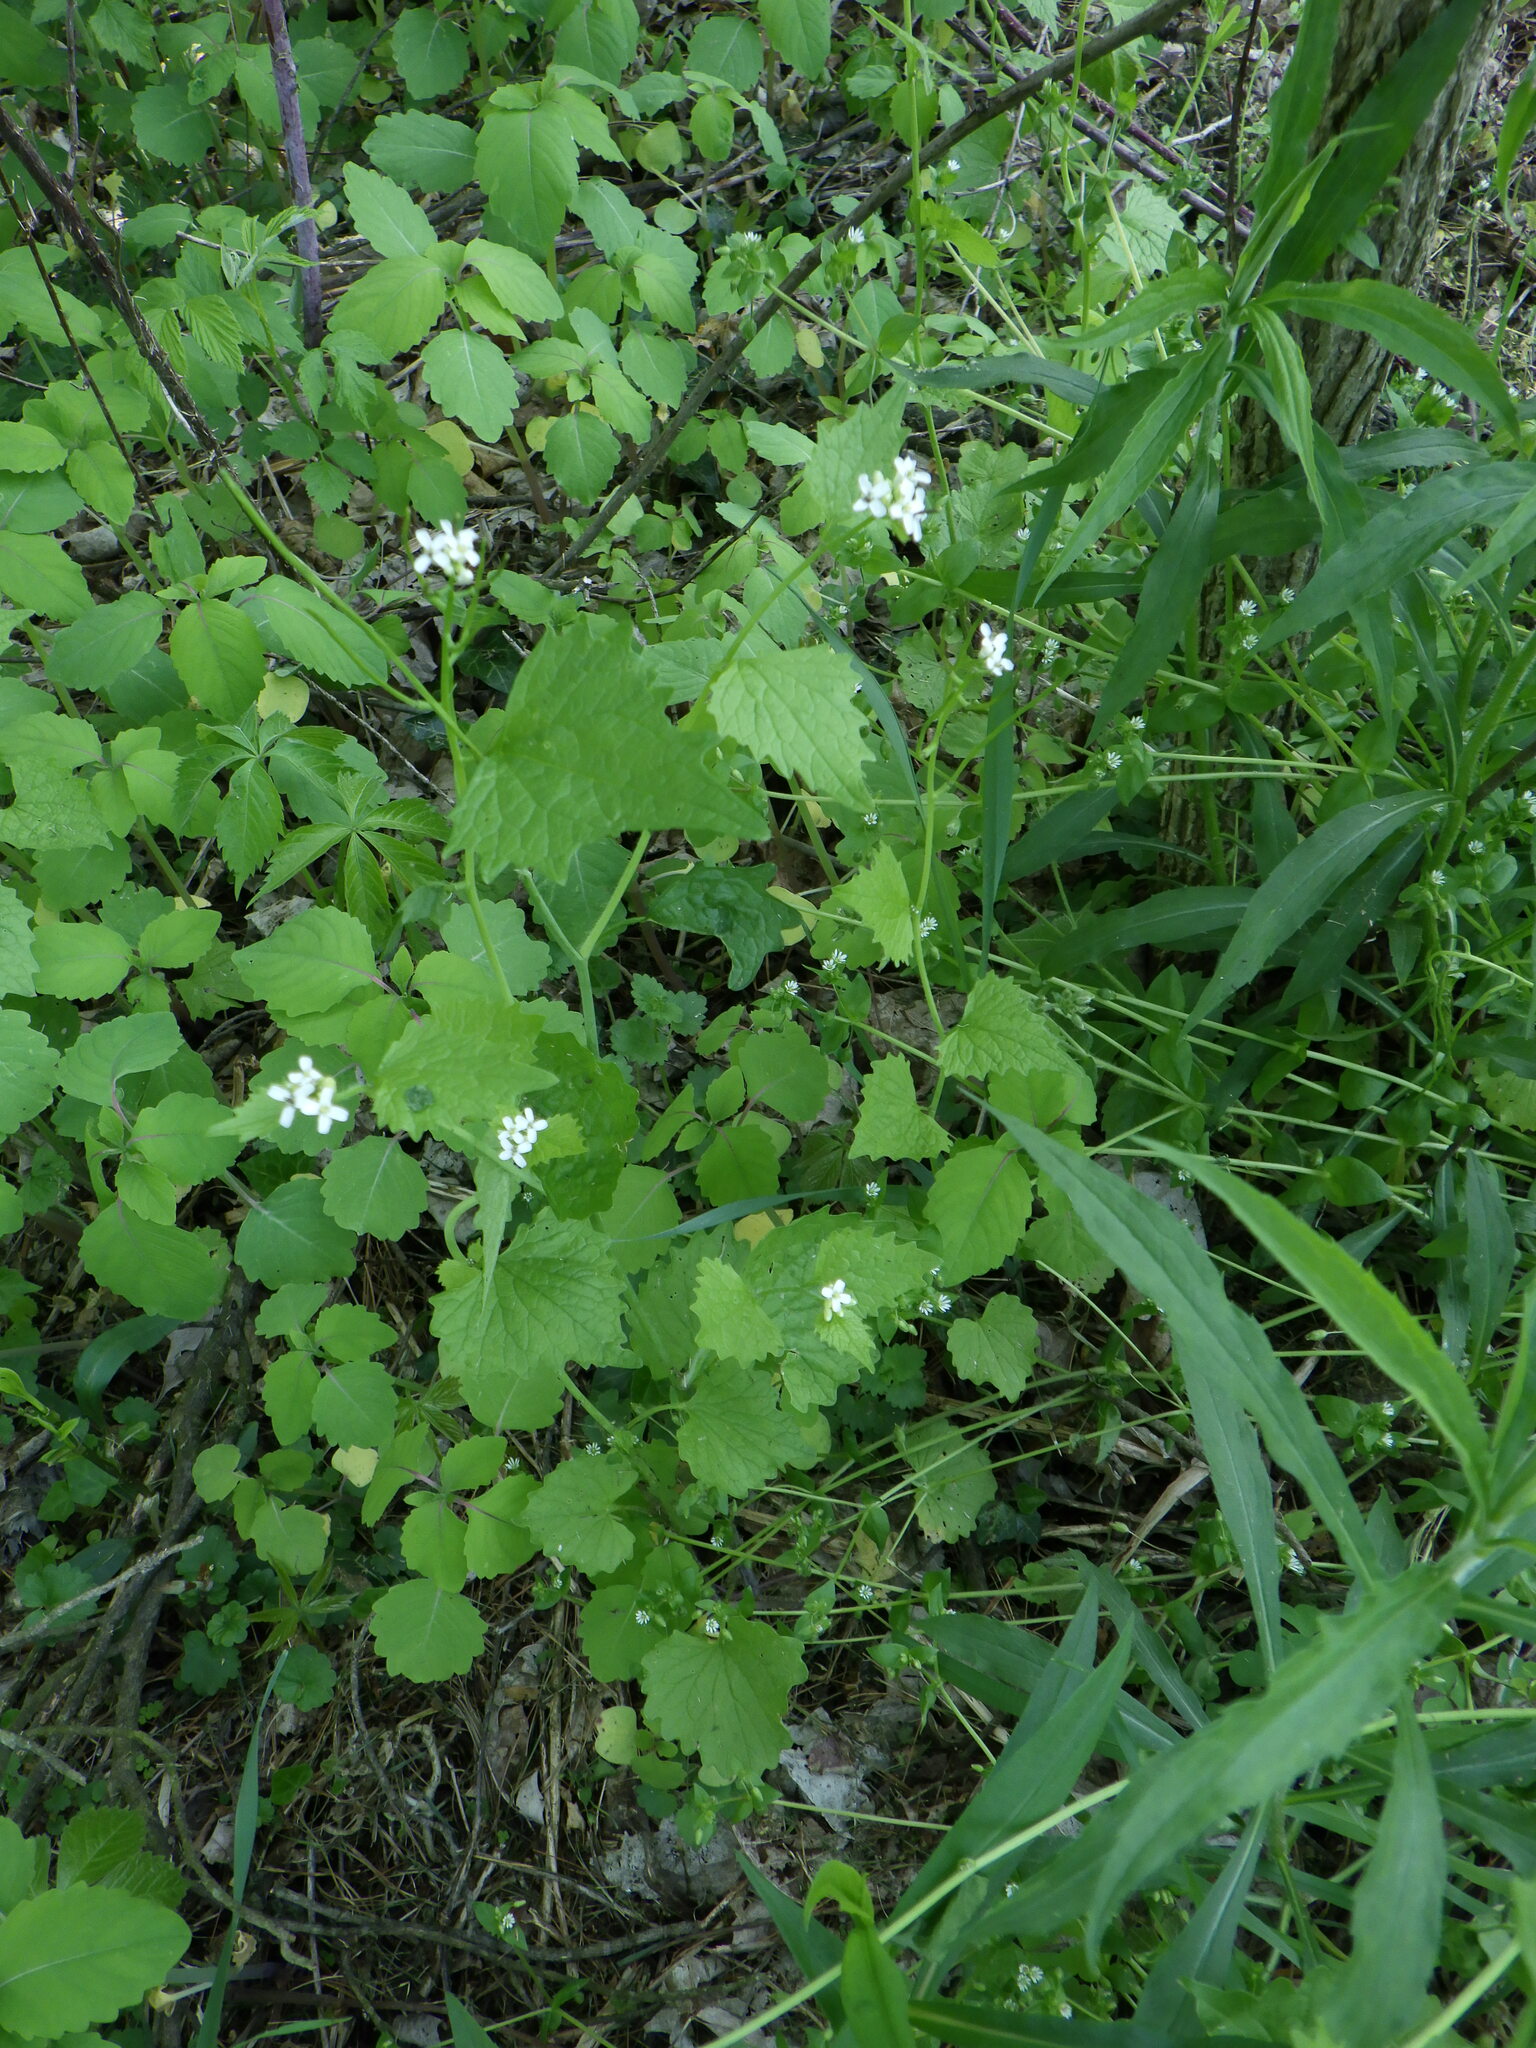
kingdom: Plantae
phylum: Tracheophyta
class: Magnoliopsida
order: Brassicales
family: Brassicaceae
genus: Alliaria
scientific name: Alliaria petiolata
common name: Garlic mustard
